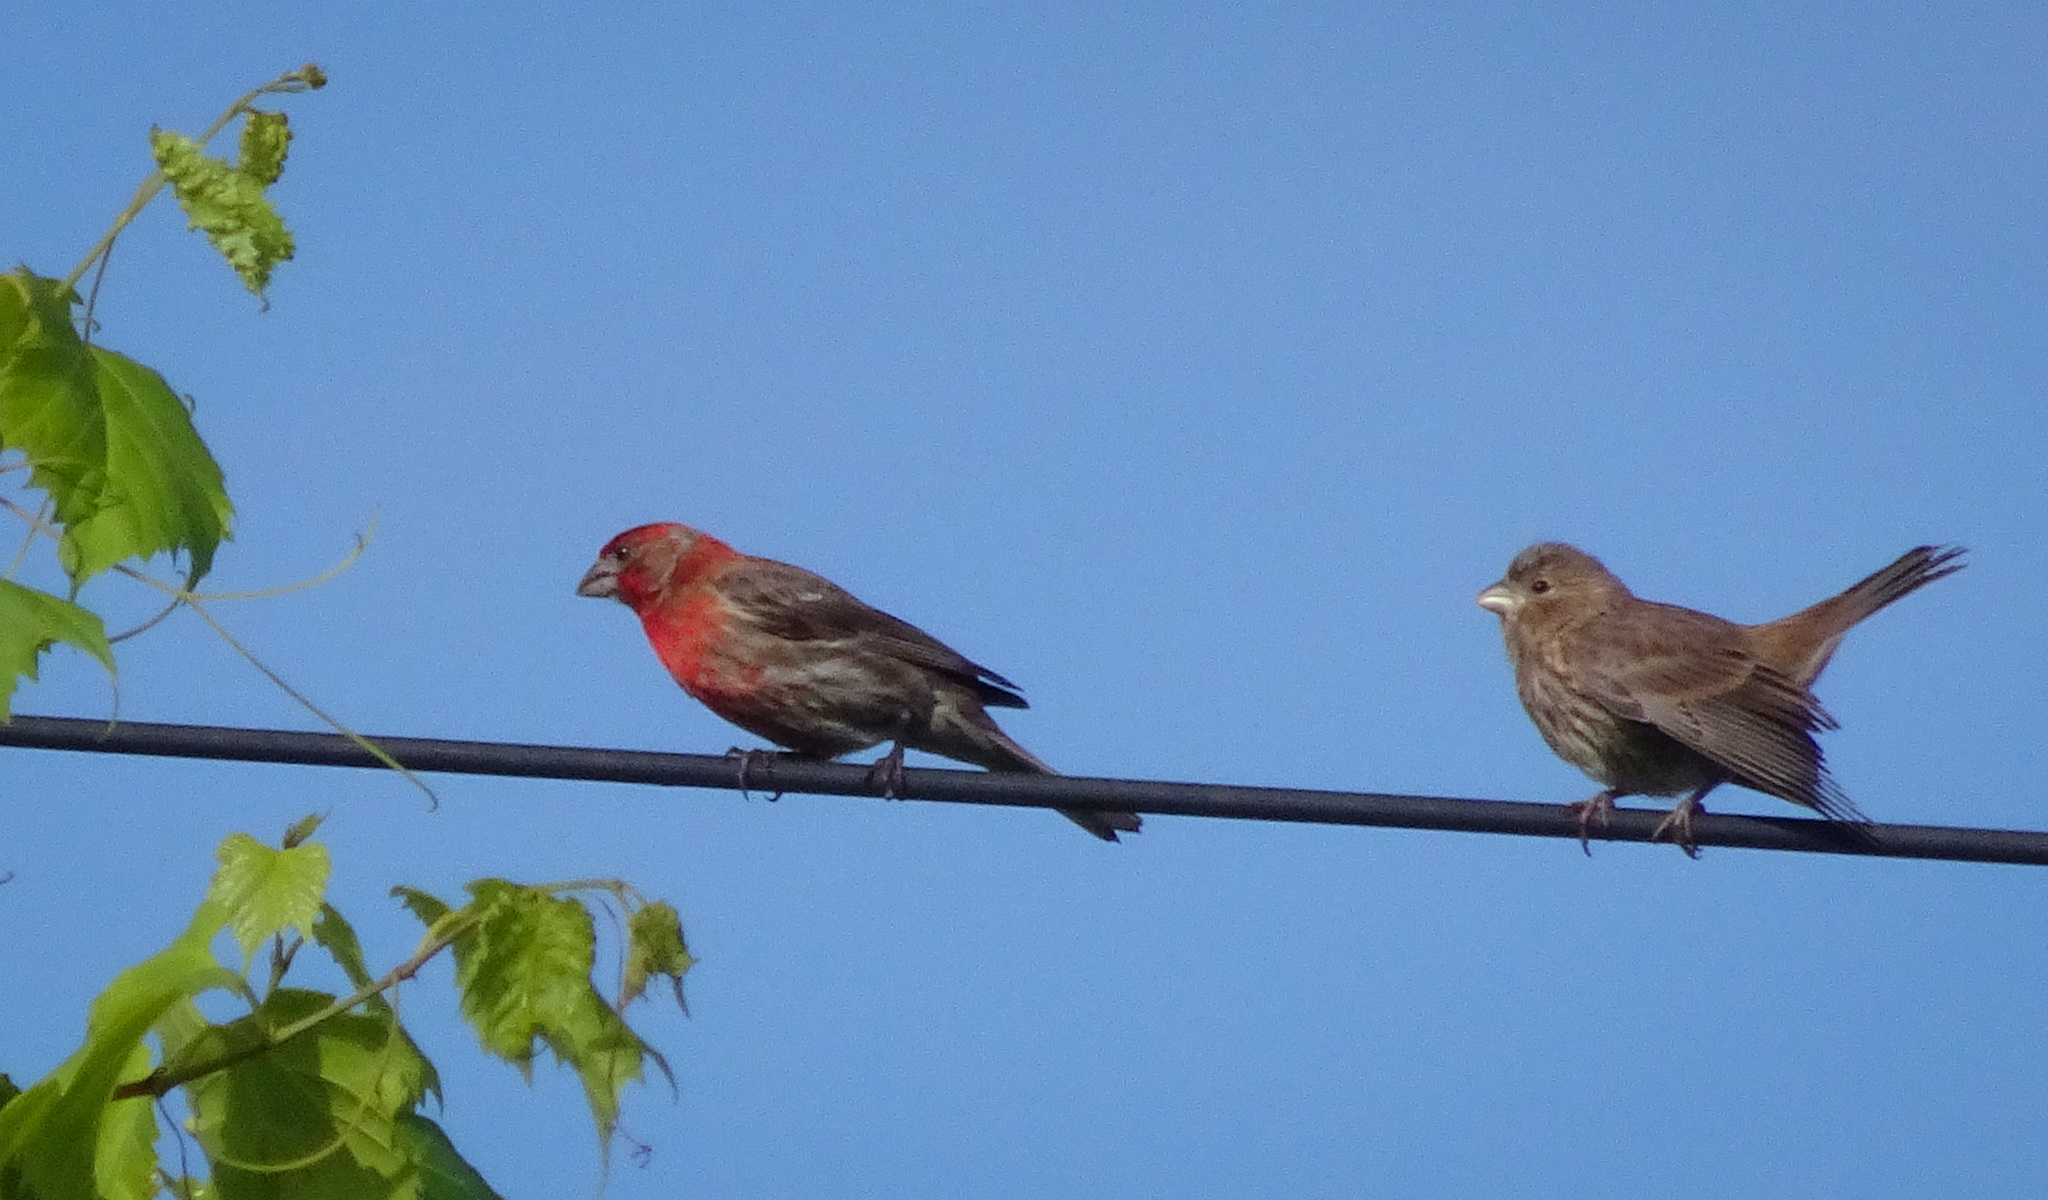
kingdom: Animalia
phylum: Chordata
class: Aves
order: Passeriformes
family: Fringillidae
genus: Haemorhous
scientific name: Haemorhous mexicanus
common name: House finch
